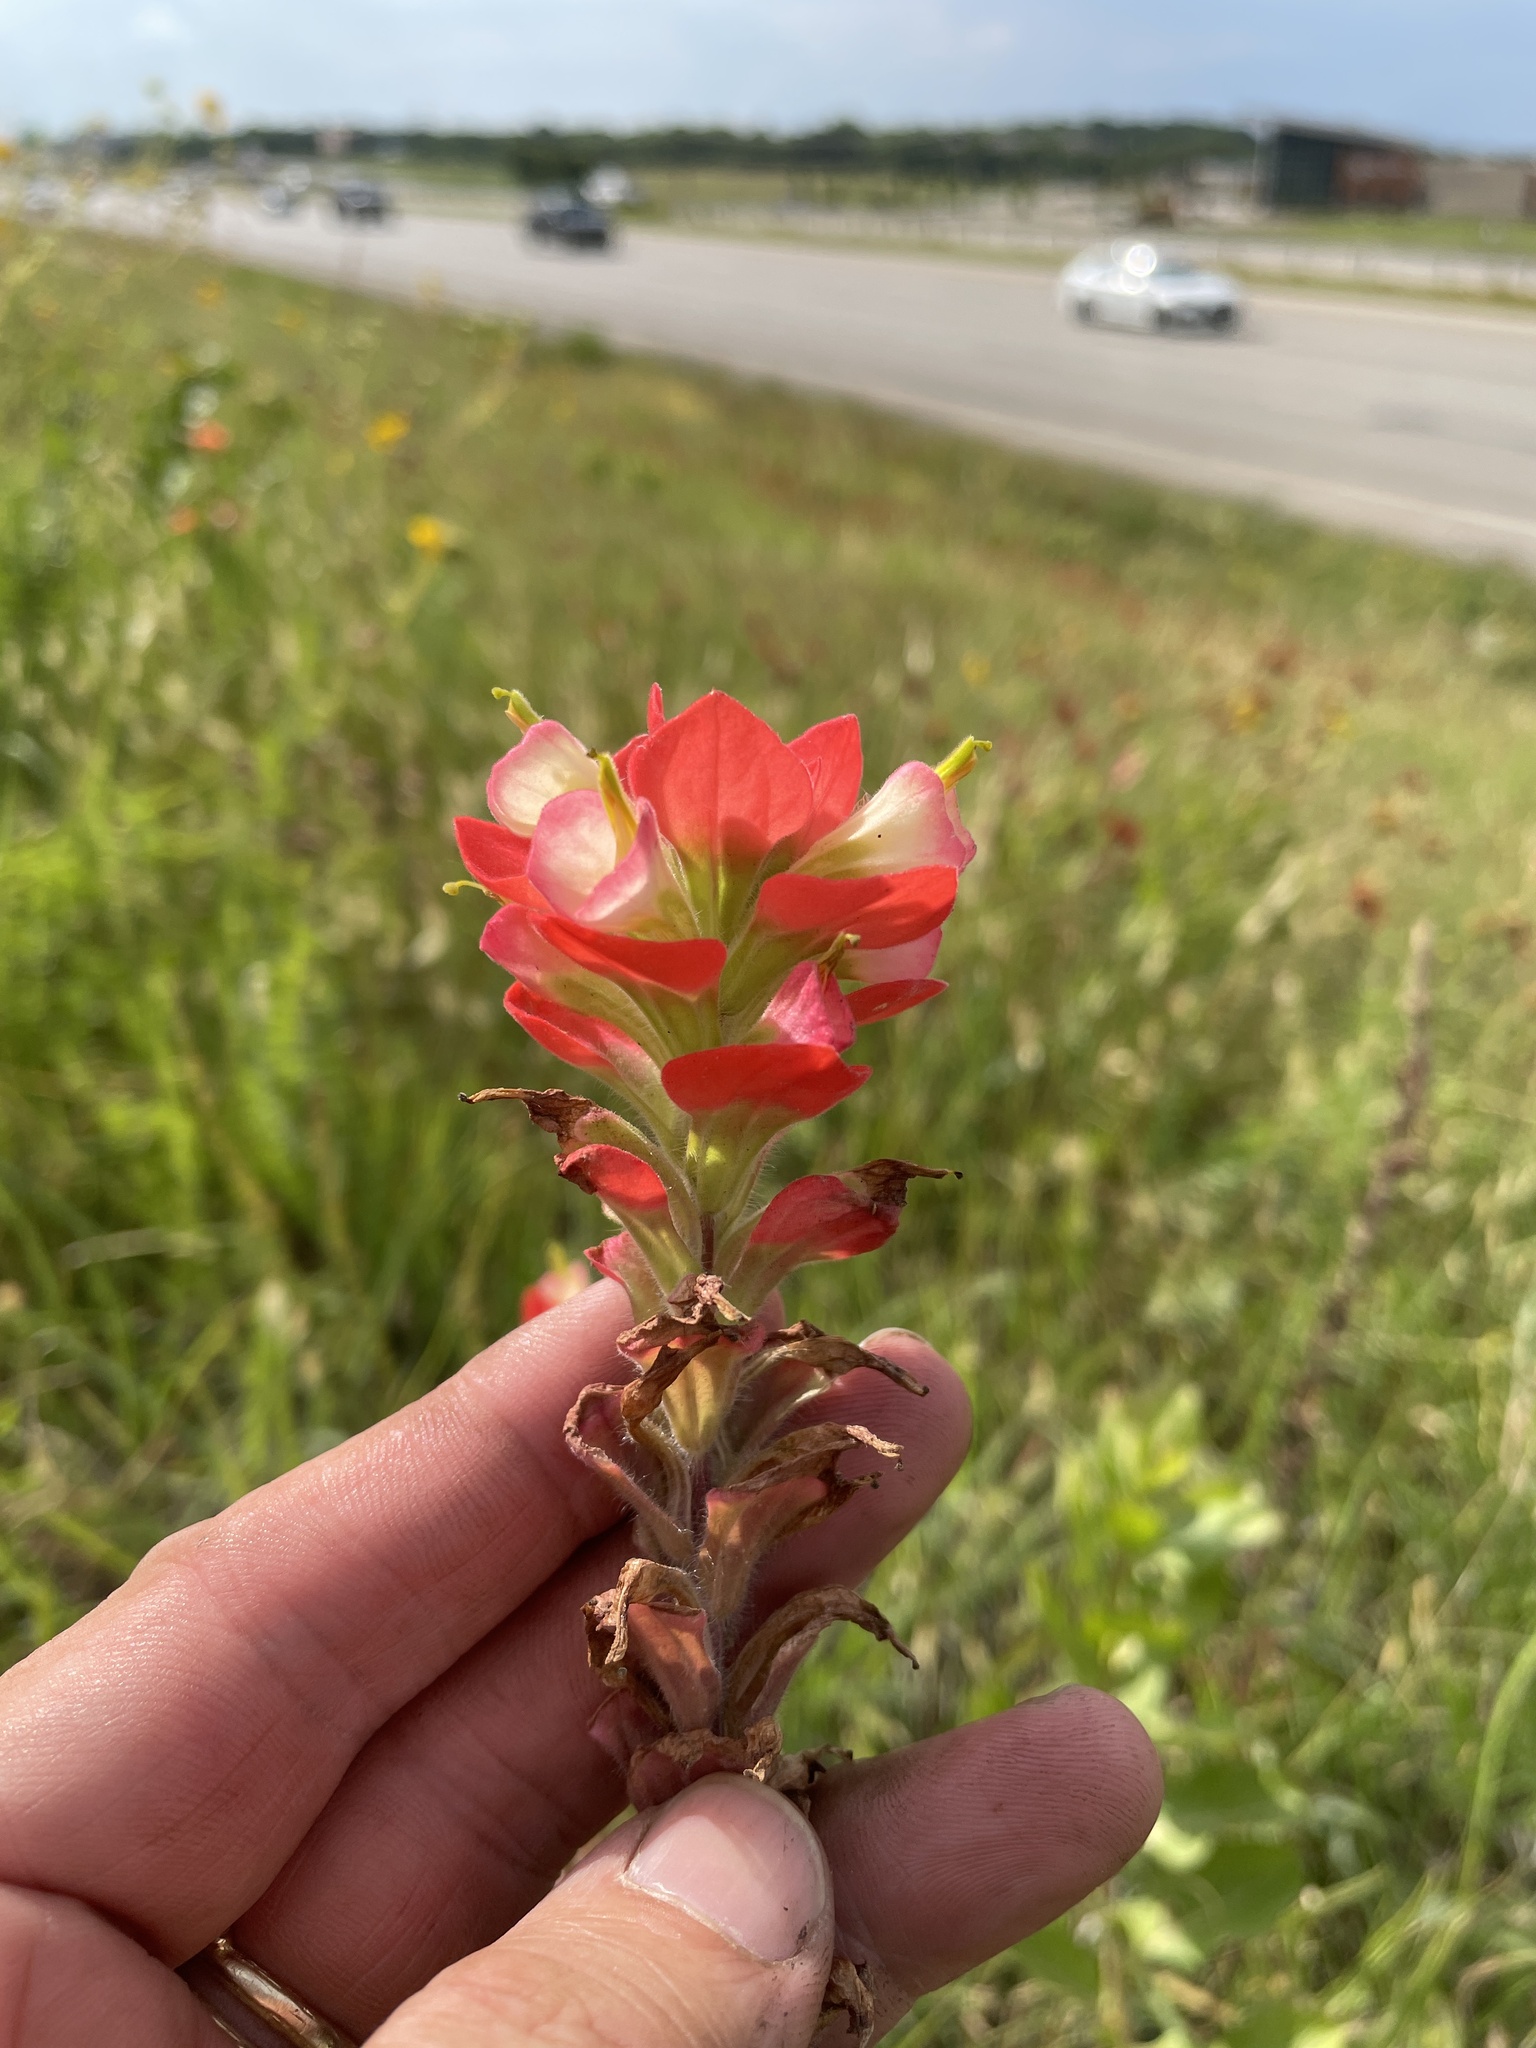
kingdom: Plantae
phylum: Tracheophyta
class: Magnoliopsida
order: Lamiales
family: Orobanchaceae
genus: Castilleja
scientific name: Castilleja indivisa
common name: Texas paintbrush
